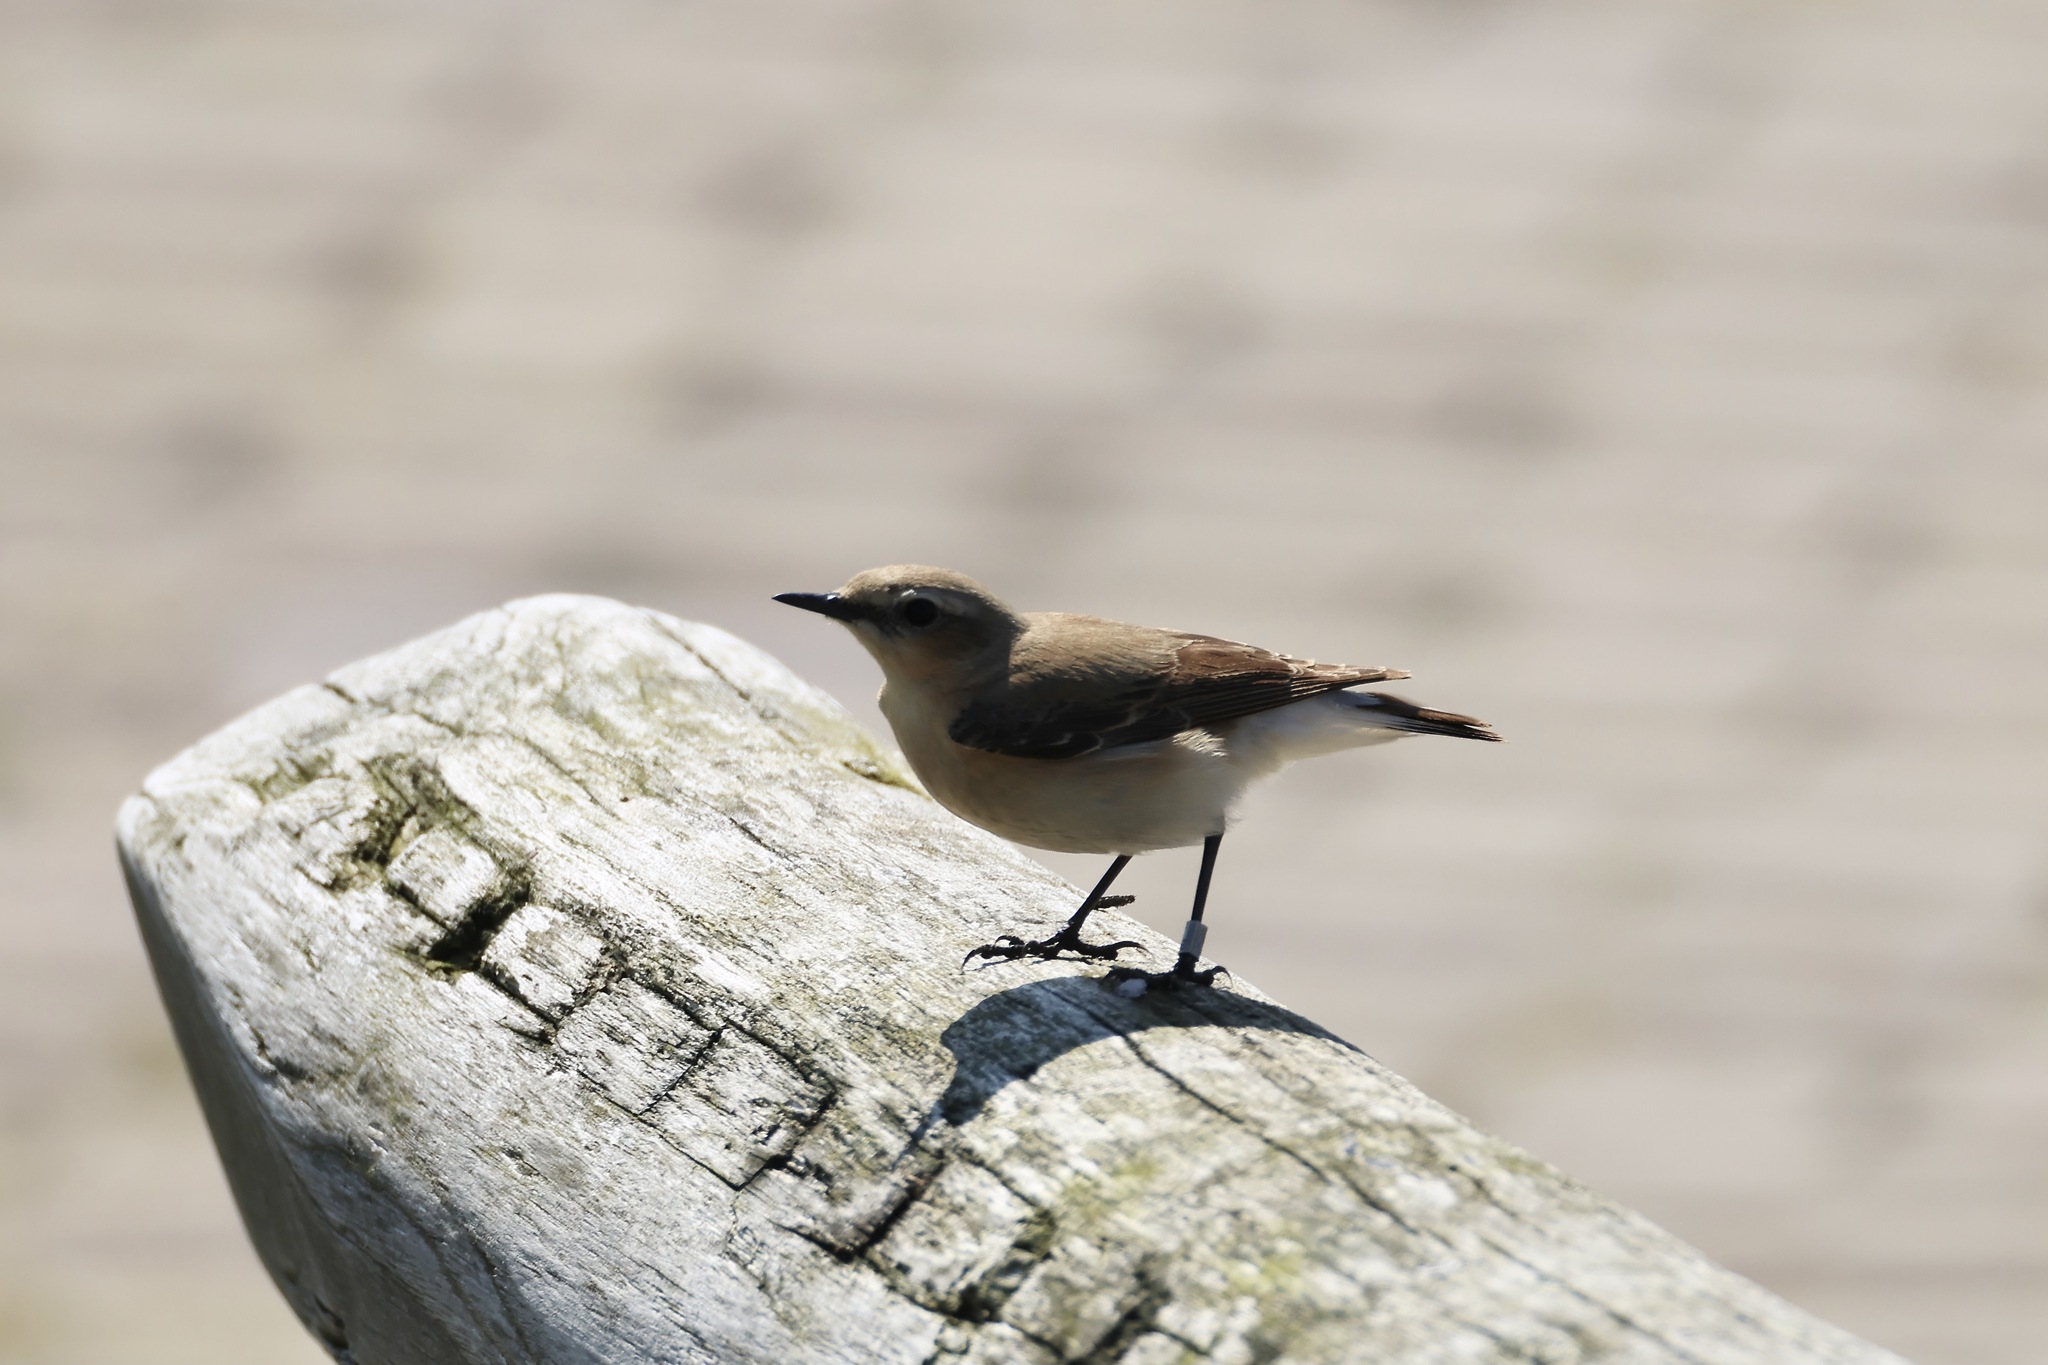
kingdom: Animalia
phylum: Chordata
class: Aves
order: Passeriformes
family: Muscicapidae
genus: Oenanthe
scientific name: Oenanthe oenanthe
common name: Northern wheatear
